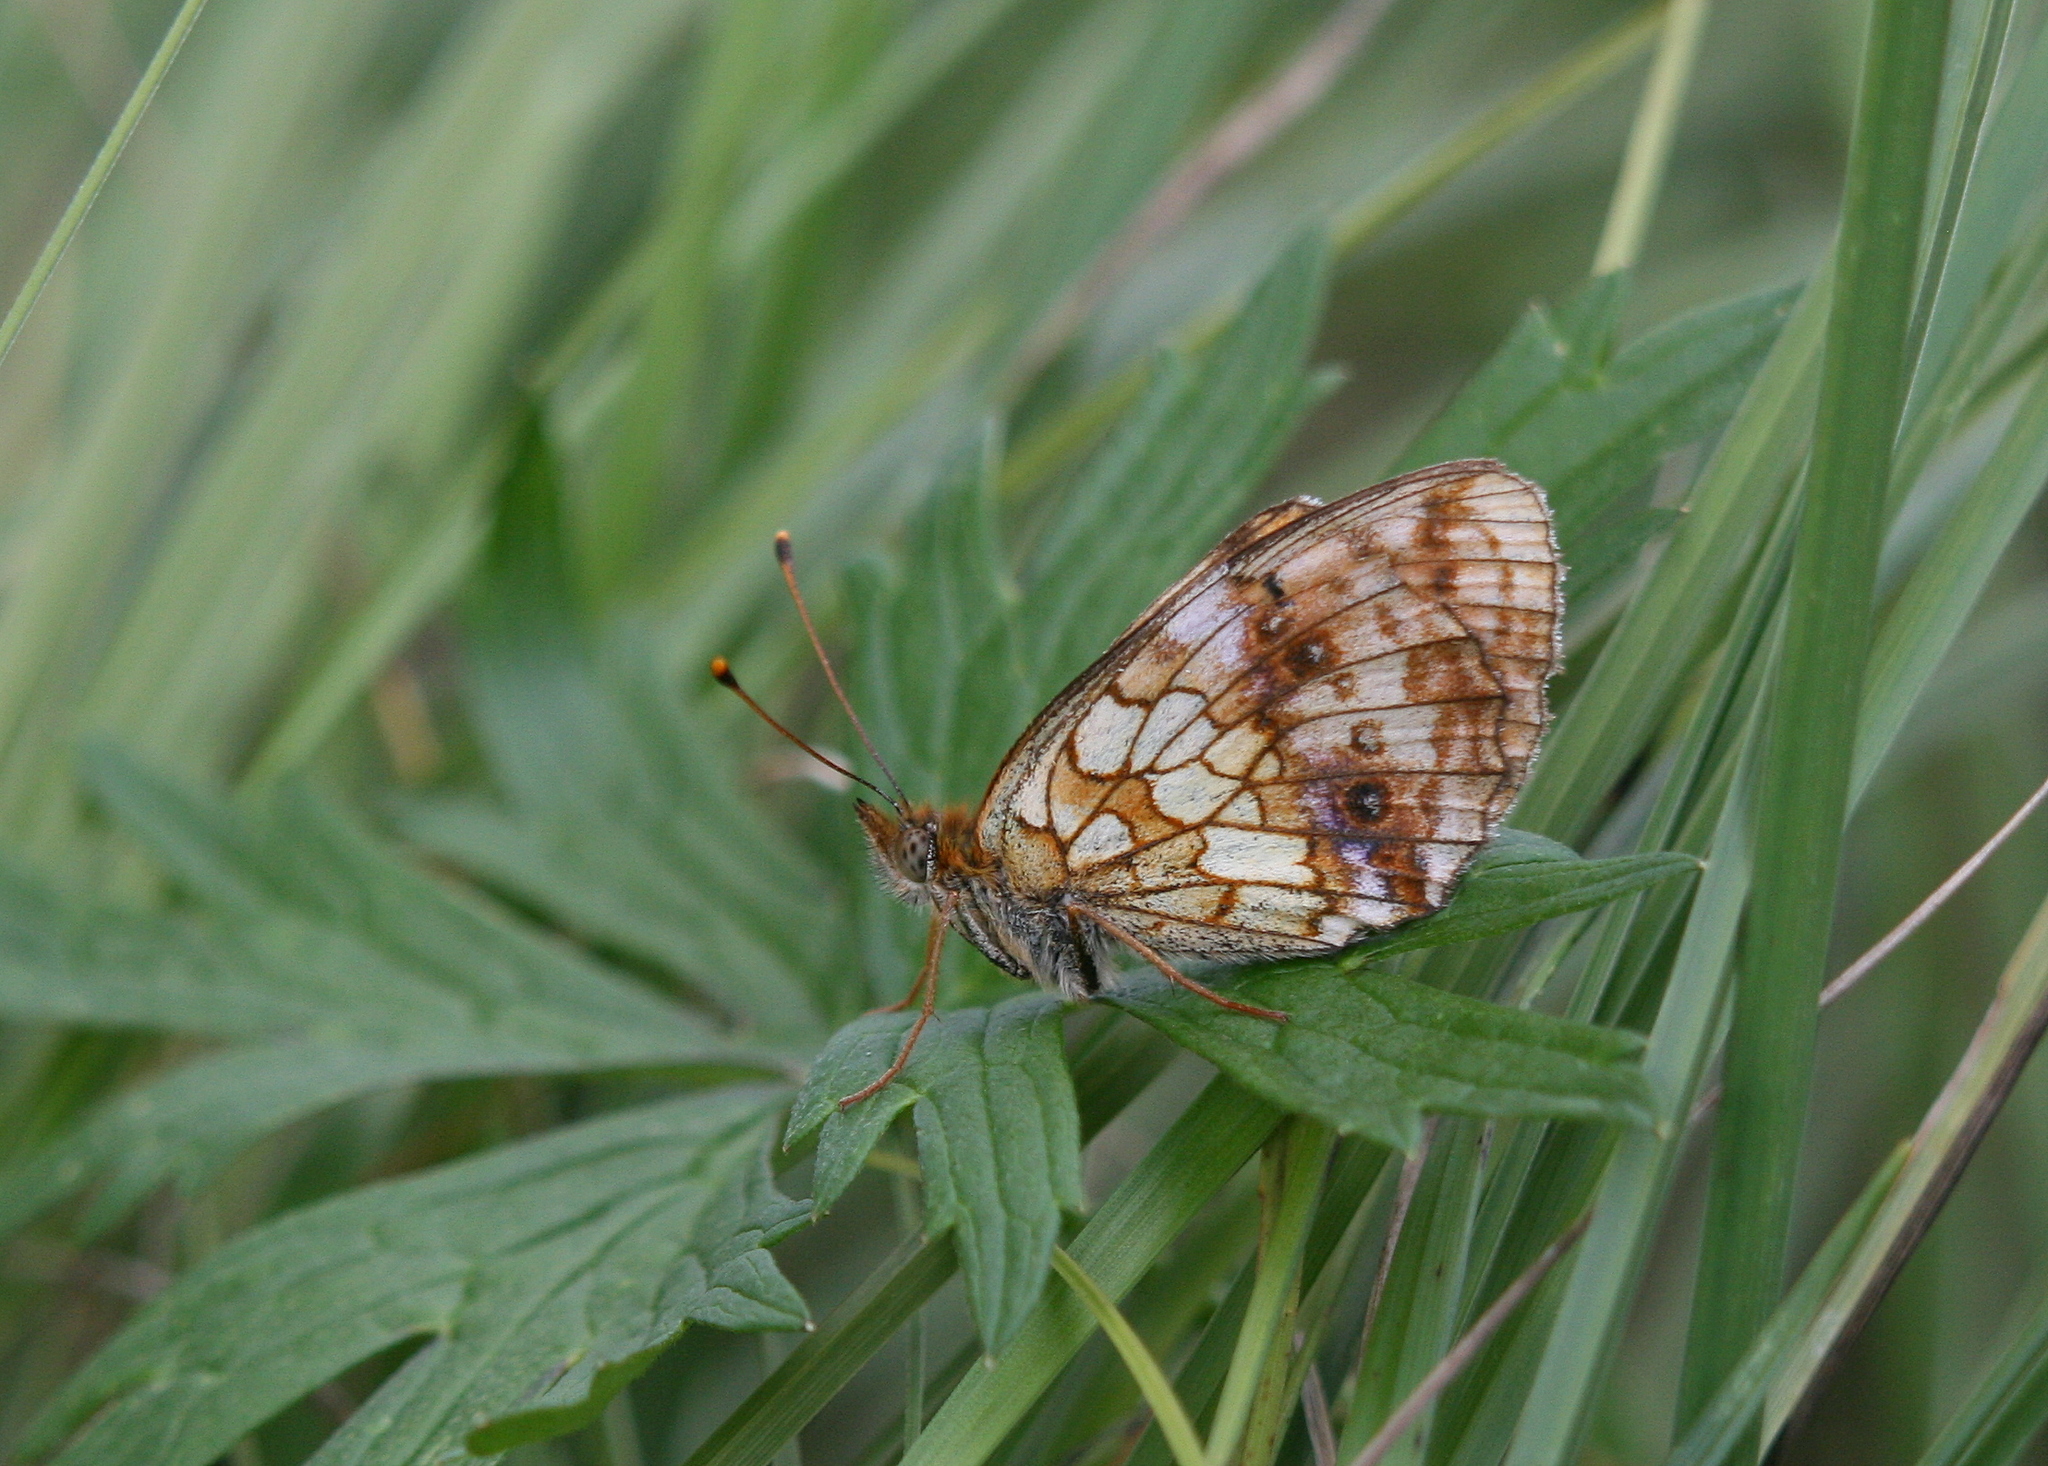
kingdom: Animalia
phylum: Arthropoda
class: Insecta
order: Lepidoptera
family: Nymphalidae
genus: Brenthis
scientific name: Brenthis ino
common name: Lesser marbled fritillary
